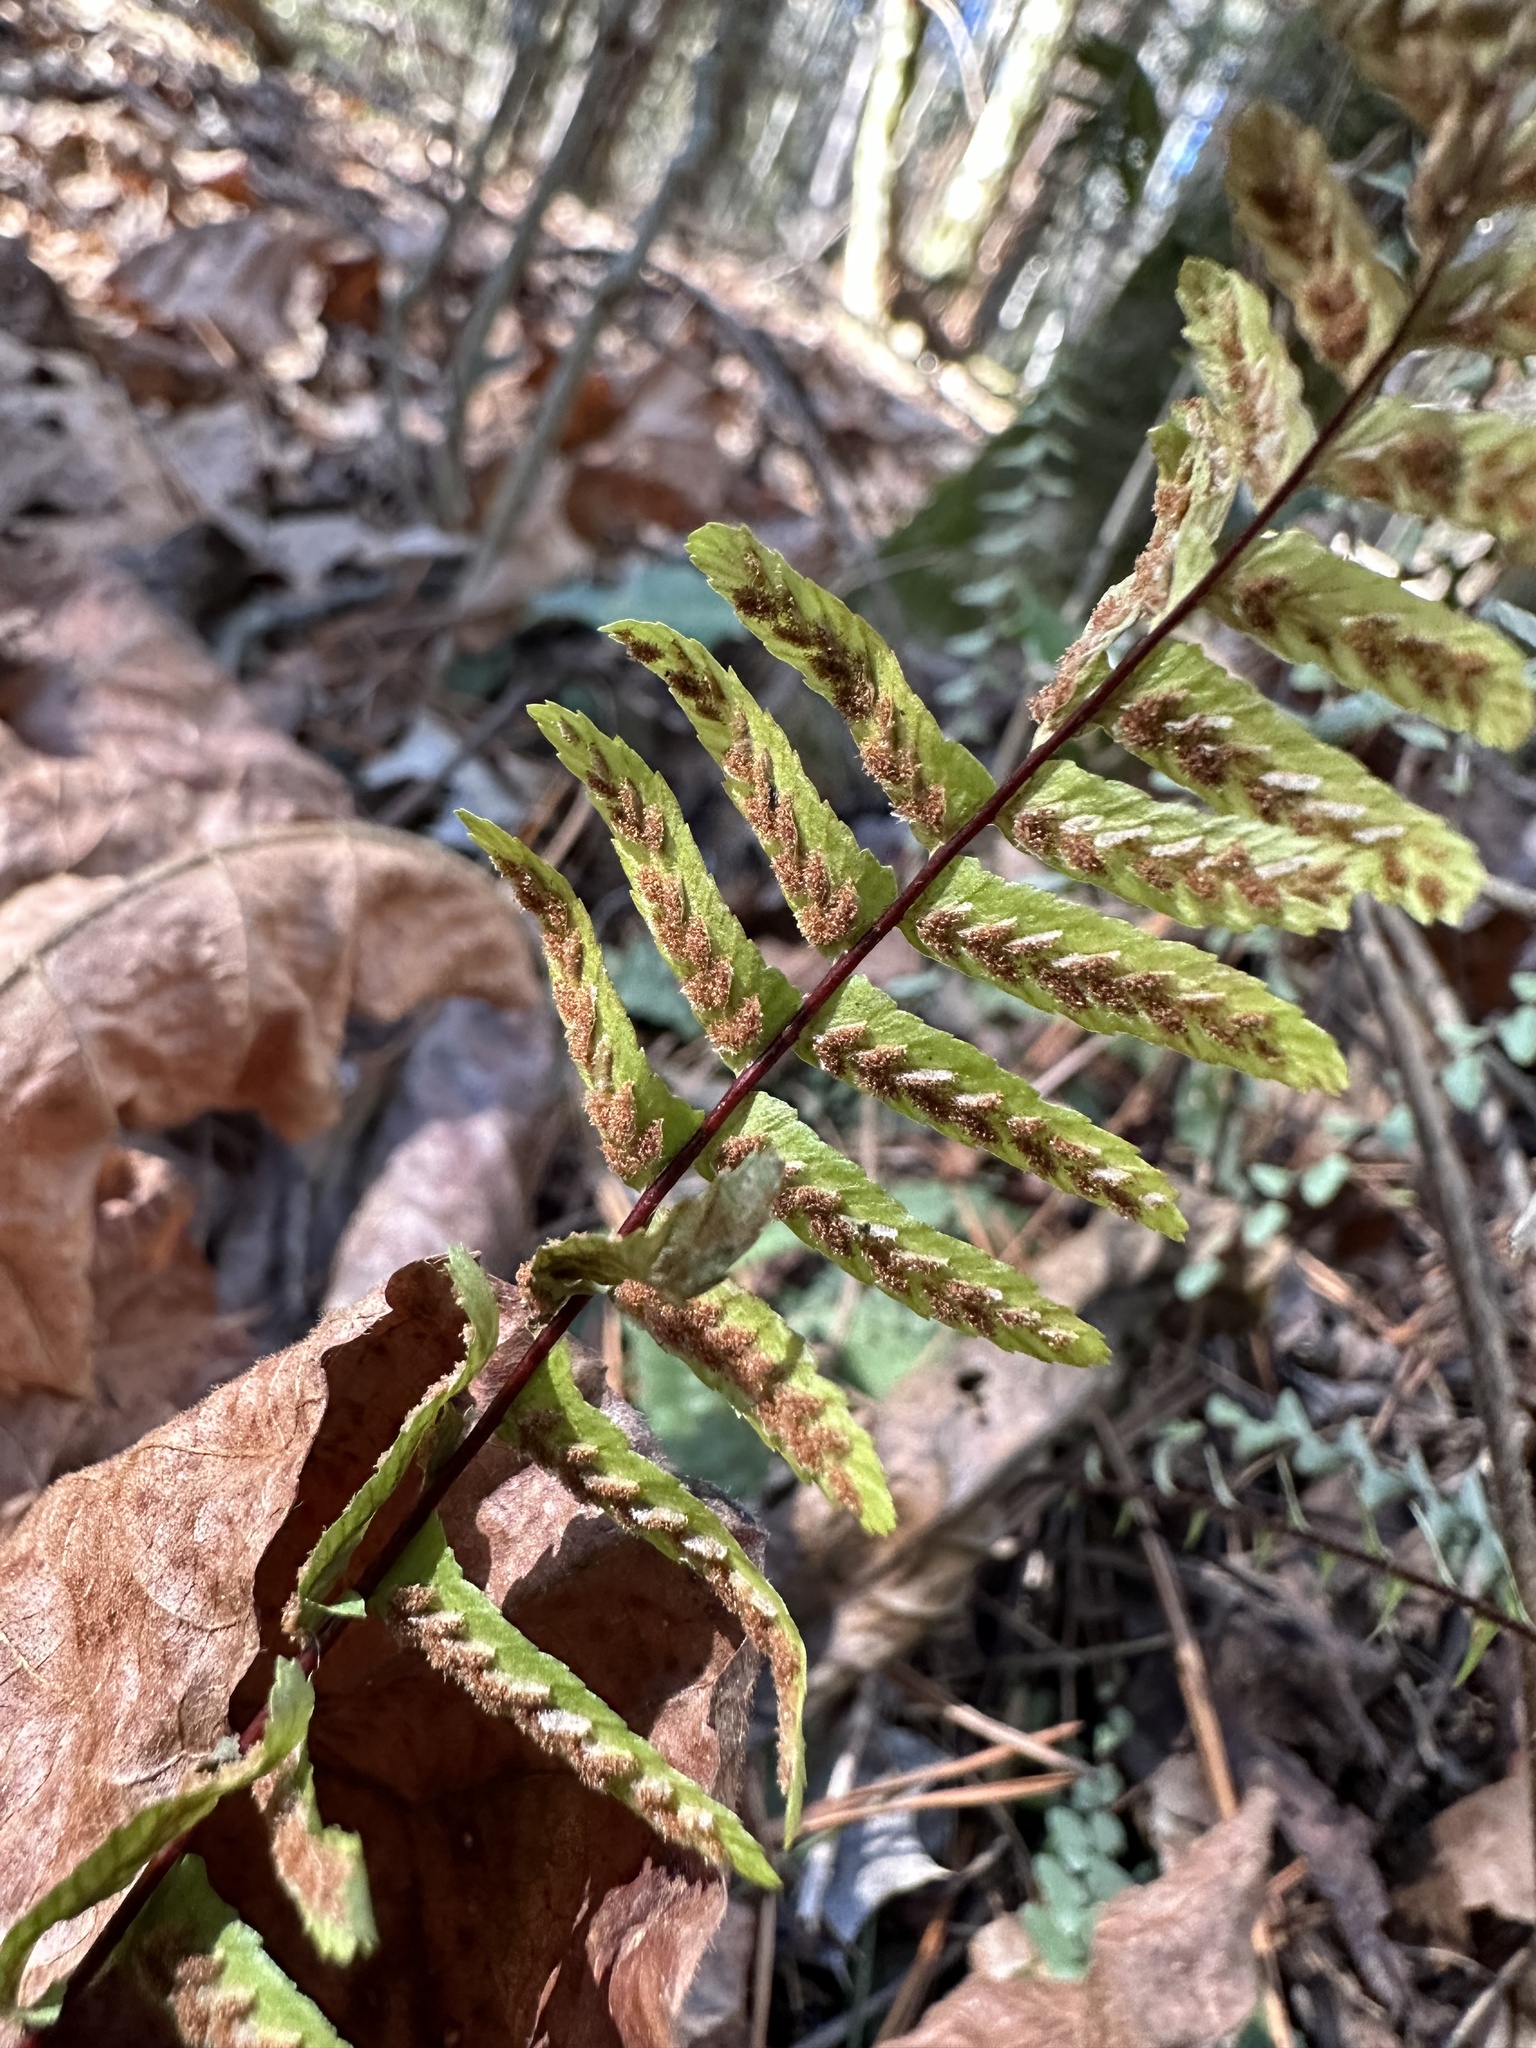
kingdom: Plantae
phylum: Tracheophyta
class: Polypodiopsida
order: Polypodiales
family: Aspleniaceae
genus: Asplenium
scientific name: Asplenium platyneuron
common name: Ebony spleenwort
